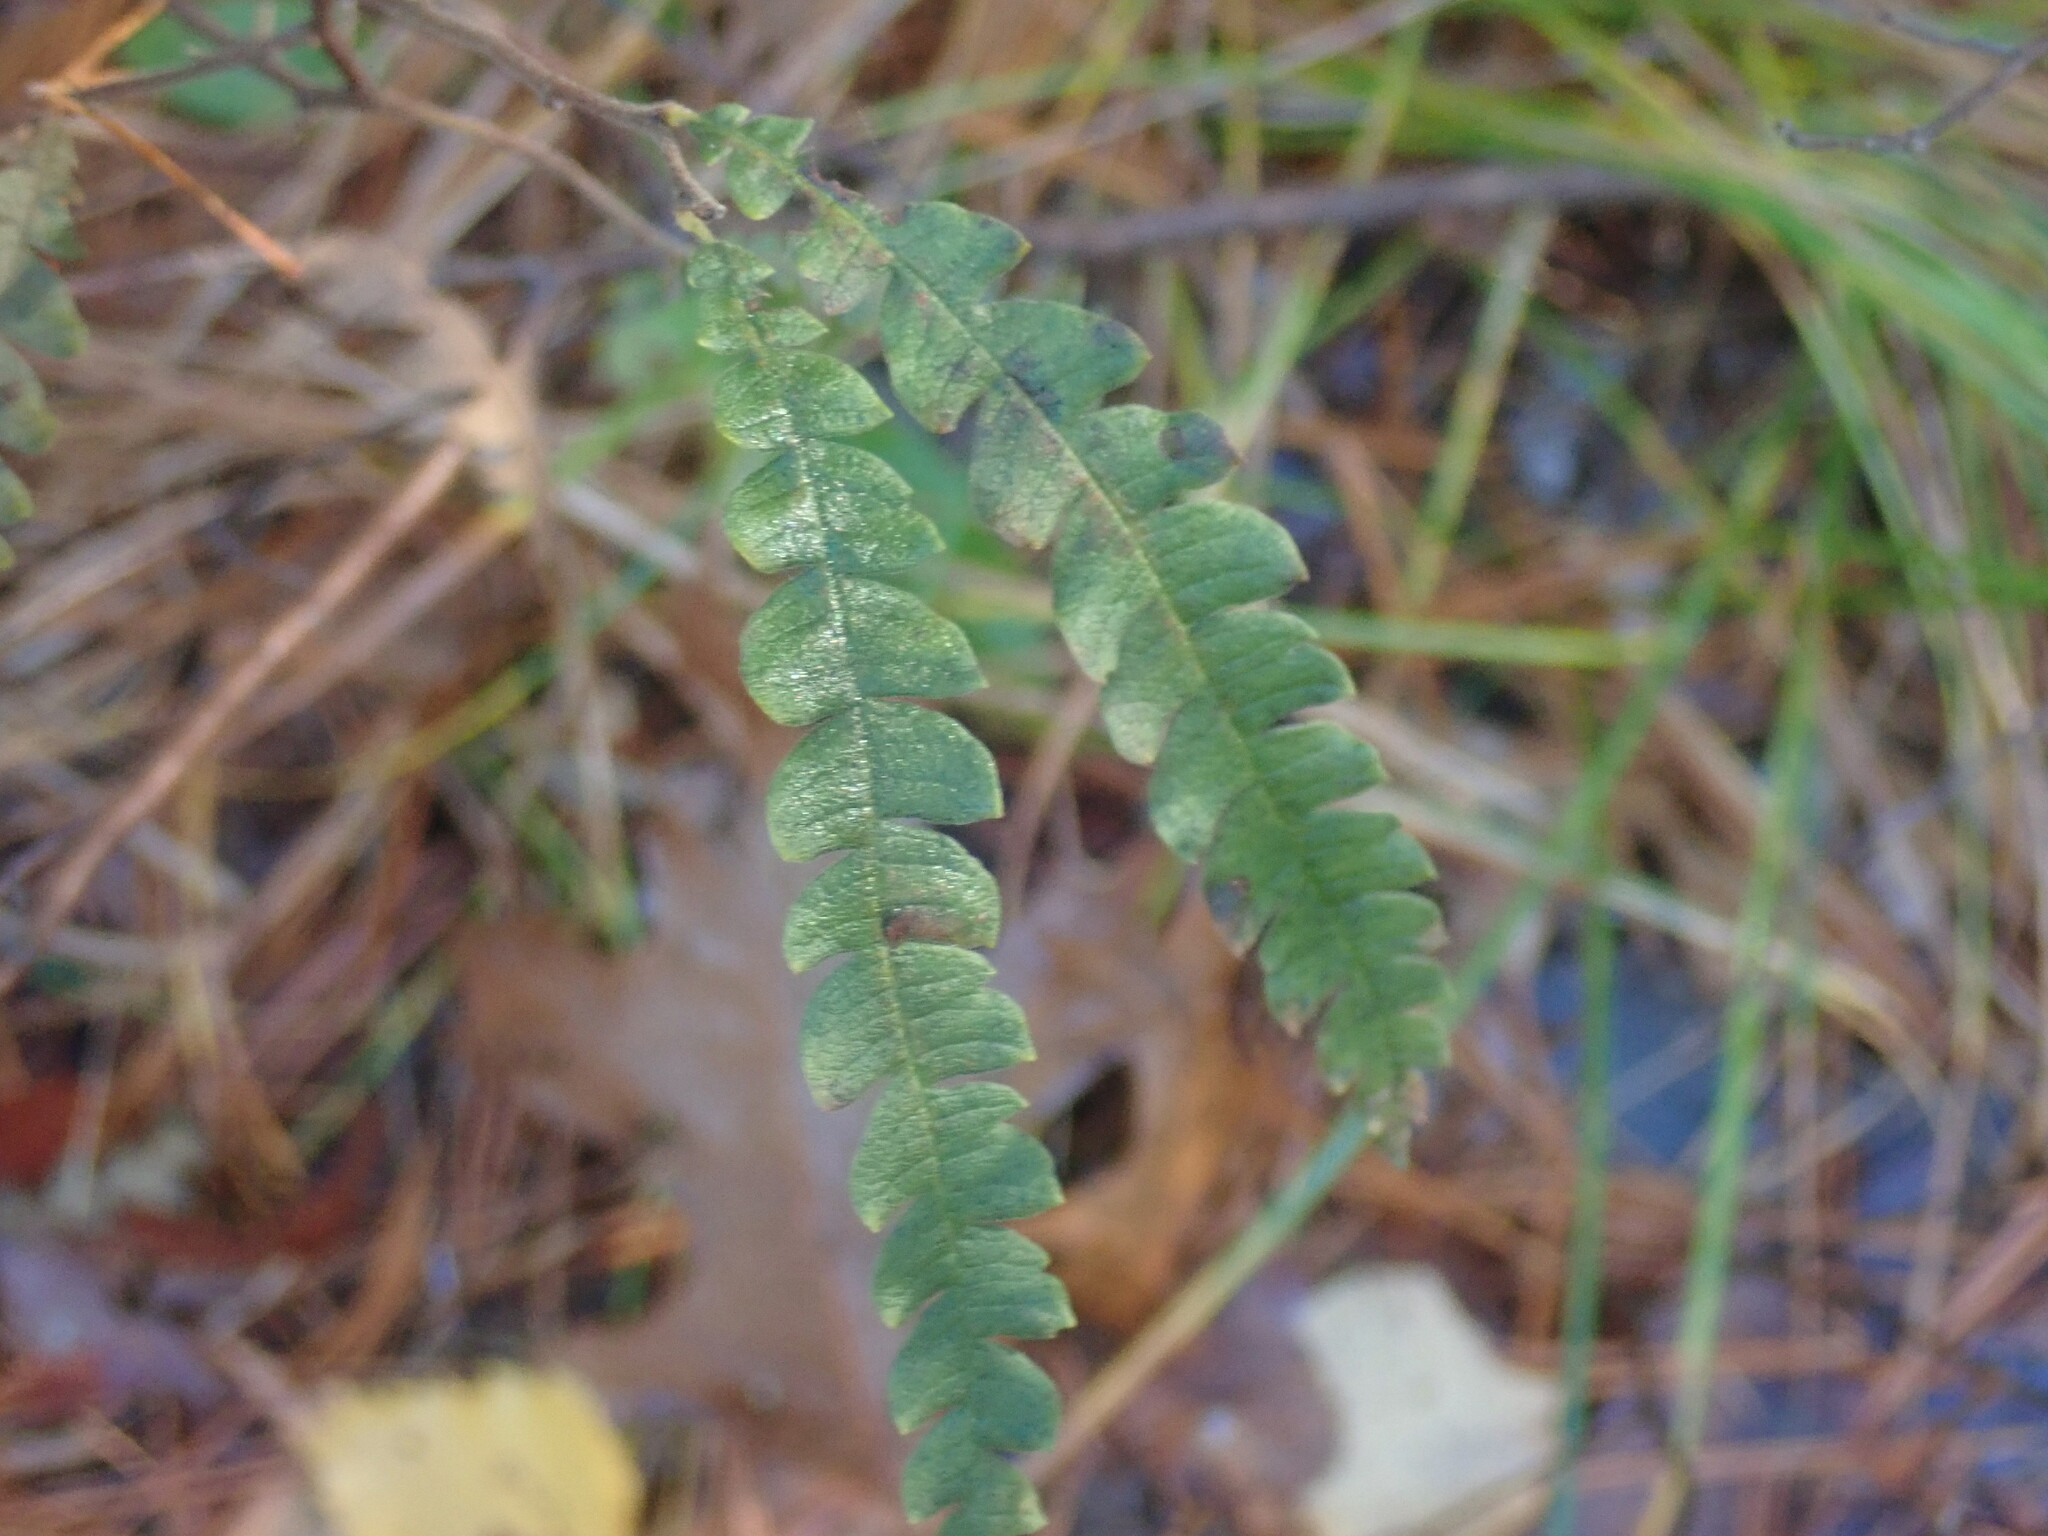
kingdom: Plantae
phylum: Tracheophyta
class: Magnoliopsida
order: Fagales
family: Myricaceae
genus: Comptonia
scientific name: Comptonia peregrina
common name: Sweet-fern
